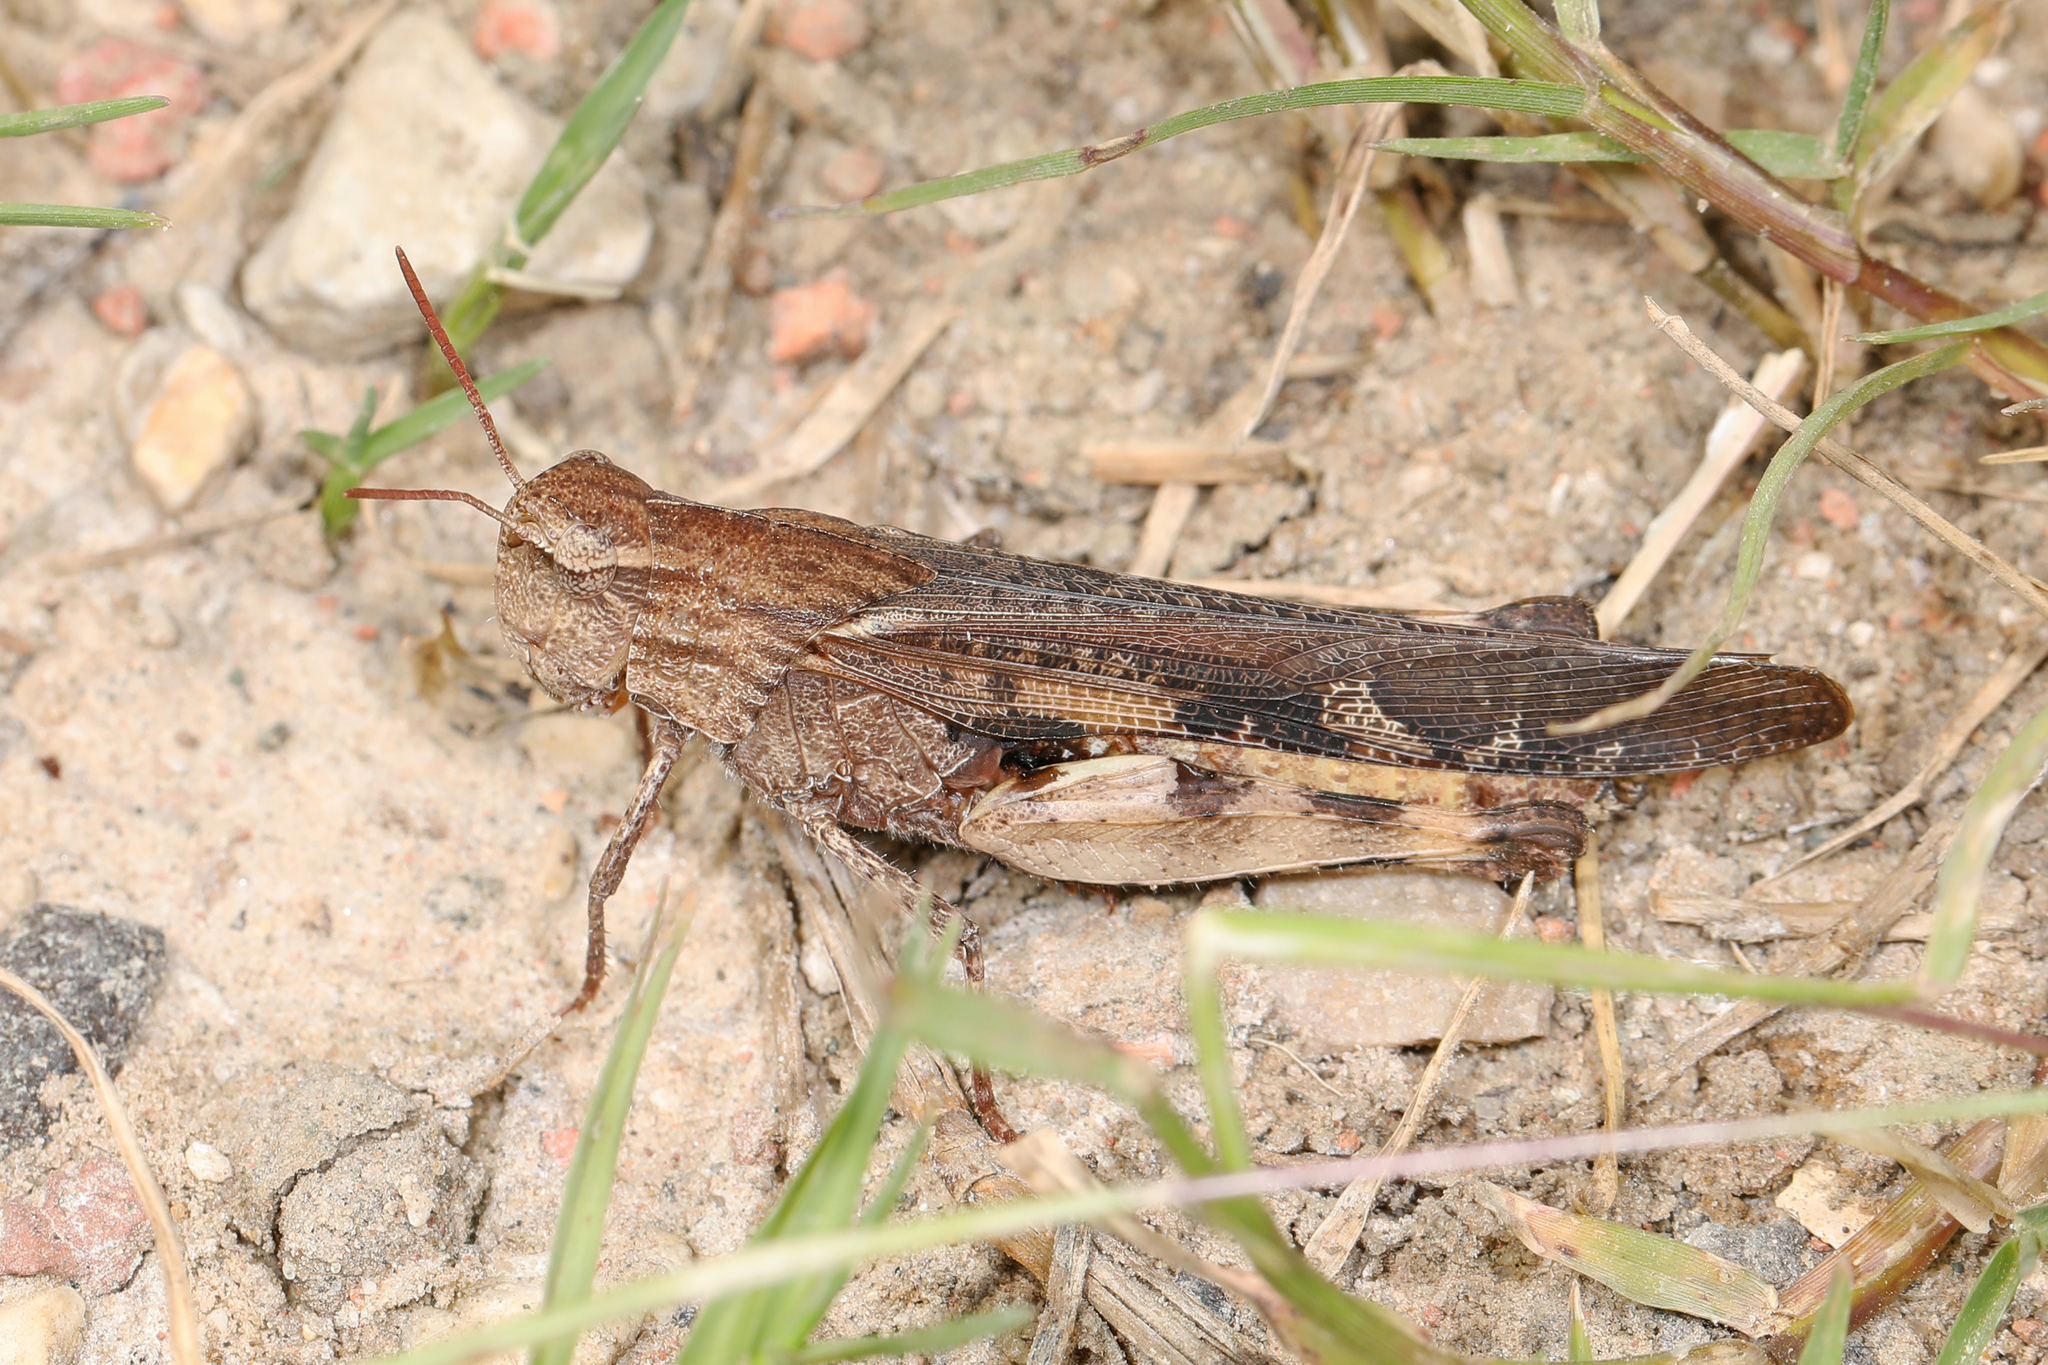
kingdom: Animalia
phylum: Arthropoda
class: Insecta
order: Orthoptera
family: Acrididae
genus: Chortophaga
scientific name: Chortophaga viridifasciata
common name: Green-striped grasshopper
